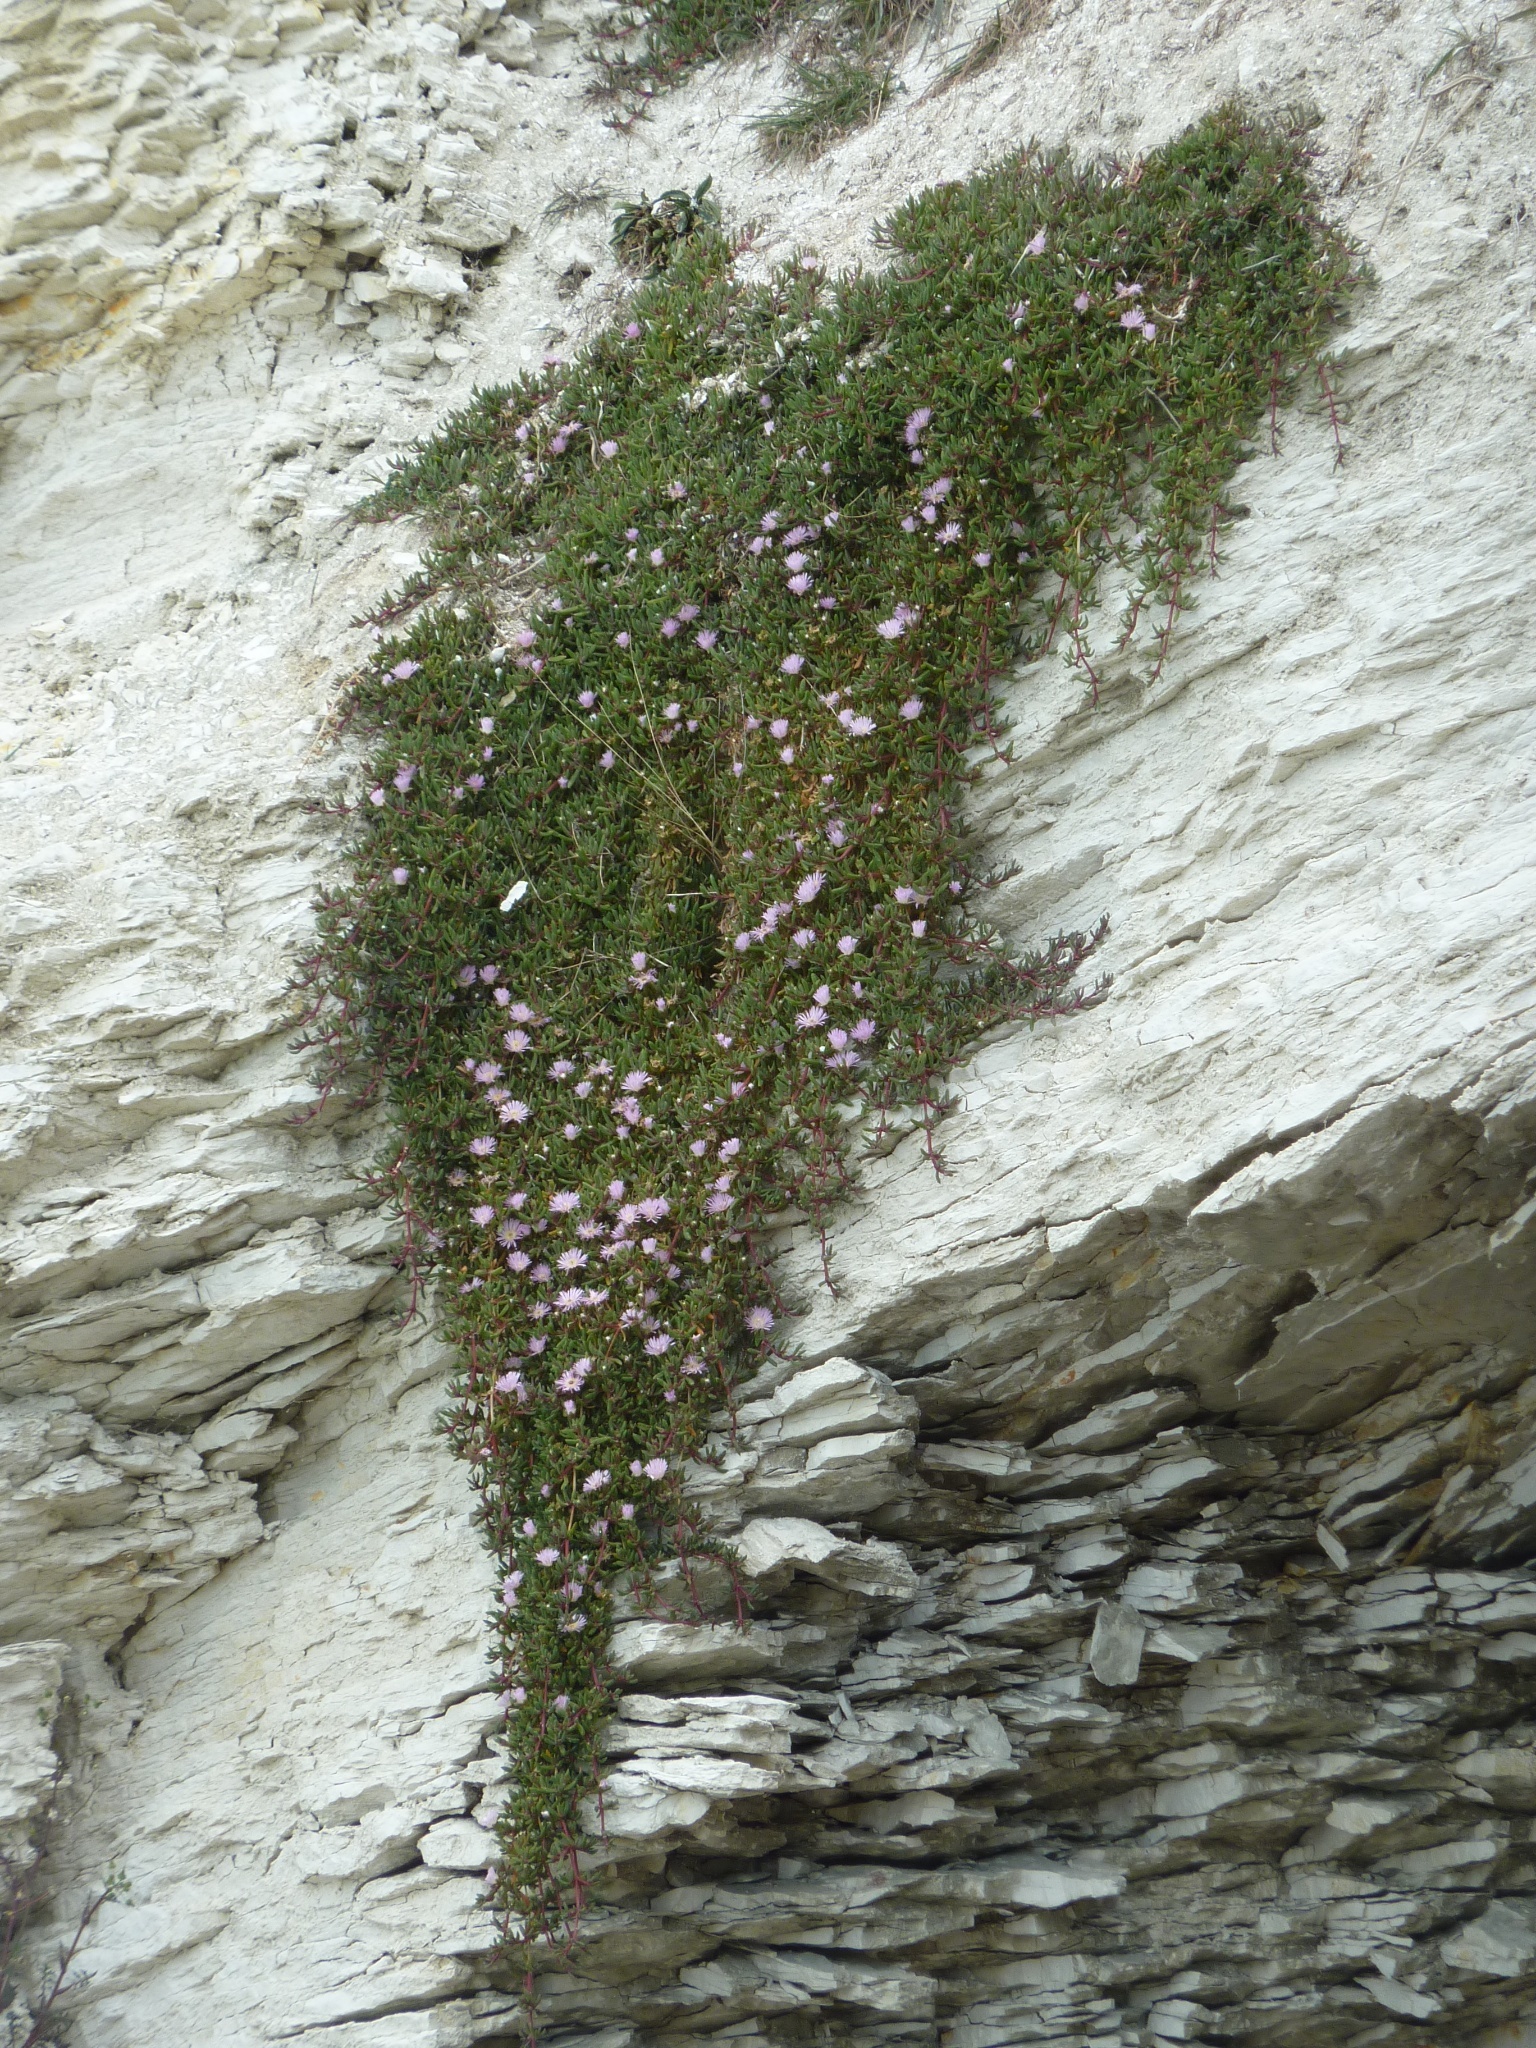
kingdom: Plantae
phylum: Tracheophyta
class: Magnoliopsida
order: Caryophyllales
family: Aizoaceae
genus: Disphyma
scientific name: Disphyma australe
